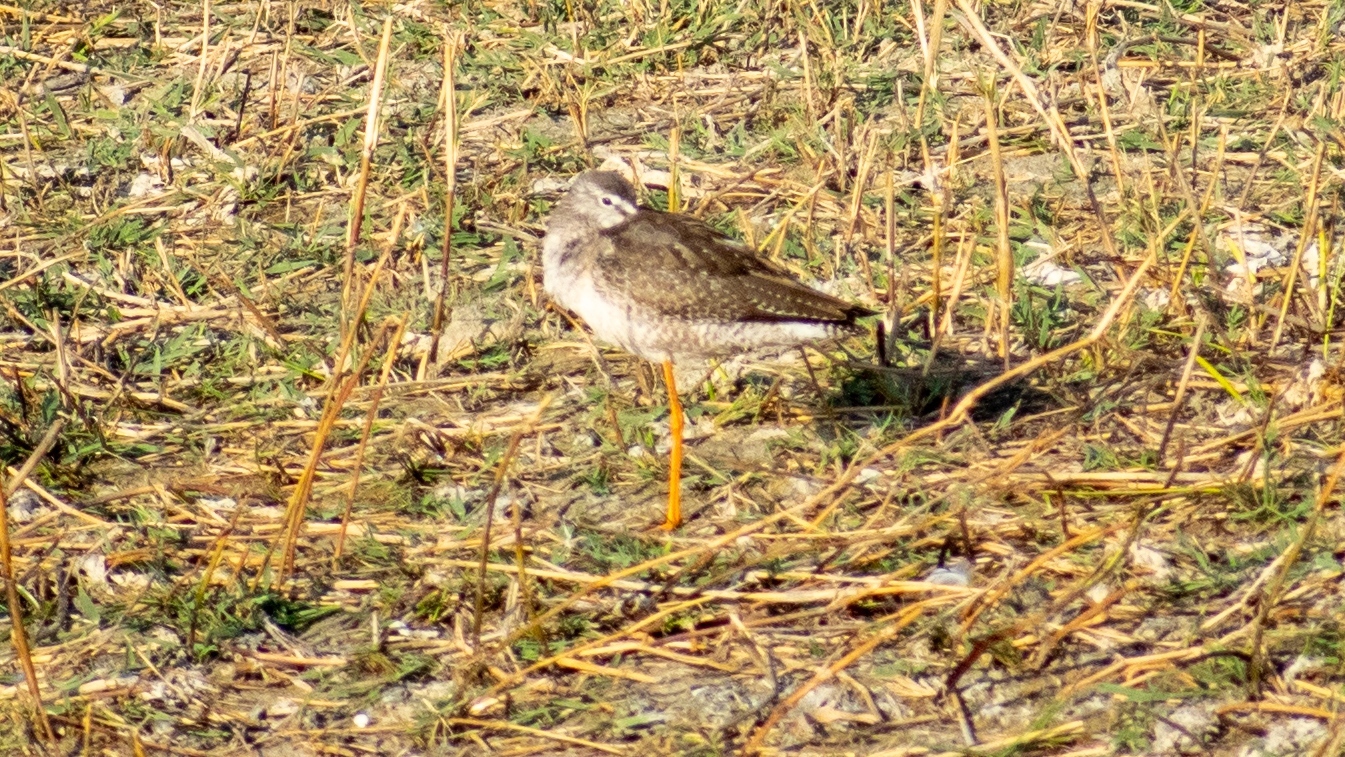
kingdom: Animalia
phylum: Chordata
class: Aves
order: Charadriiformes
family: Scolopacidae
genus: Tringa
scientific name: Tringa erythropus
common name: Spotted redshank
